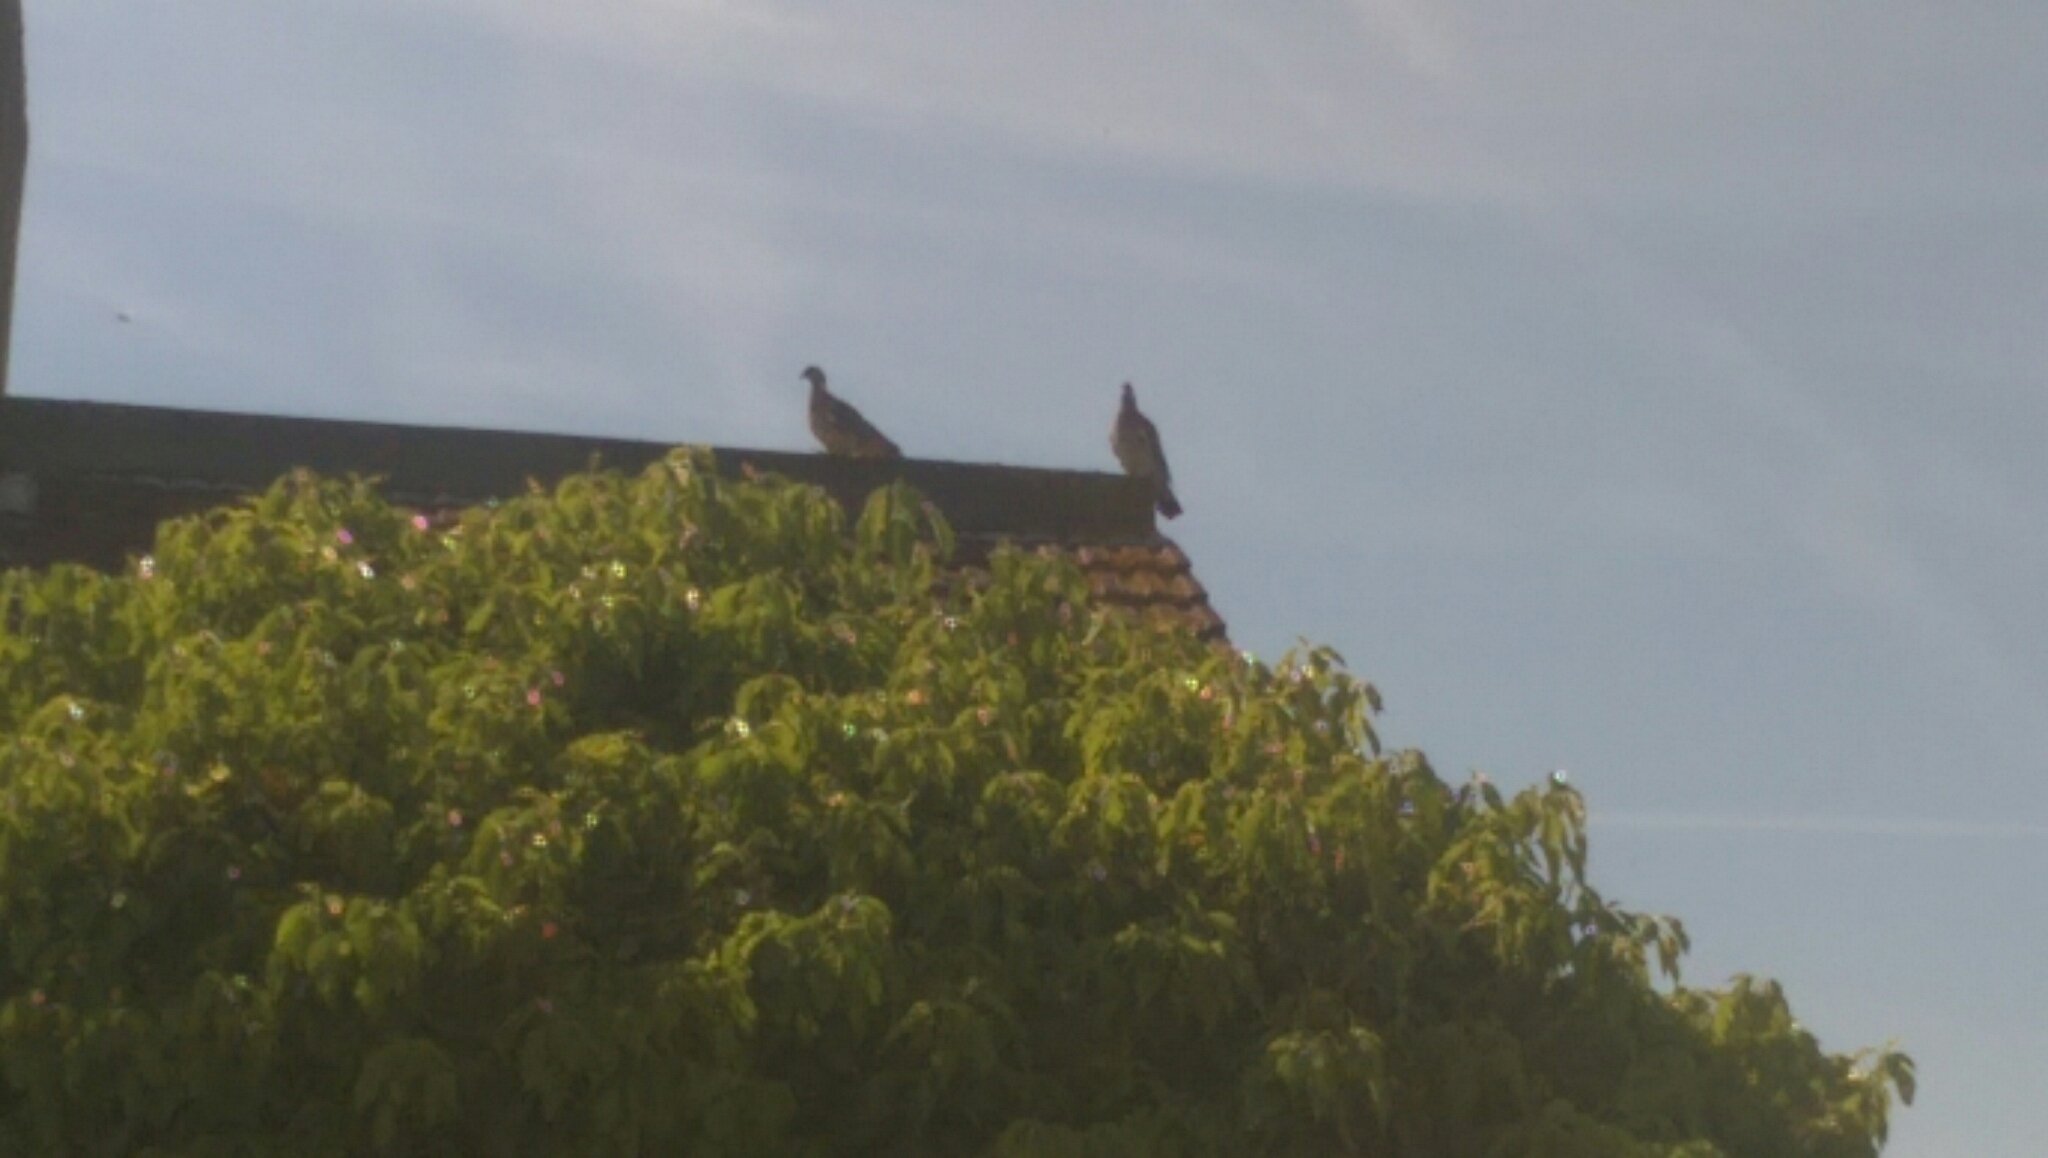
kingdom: Animalia
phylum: Chordata
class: Aves
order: Columbiformes
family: Columbidae
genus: Columba
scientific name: Columba palumbus
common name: Common wood pigeon
